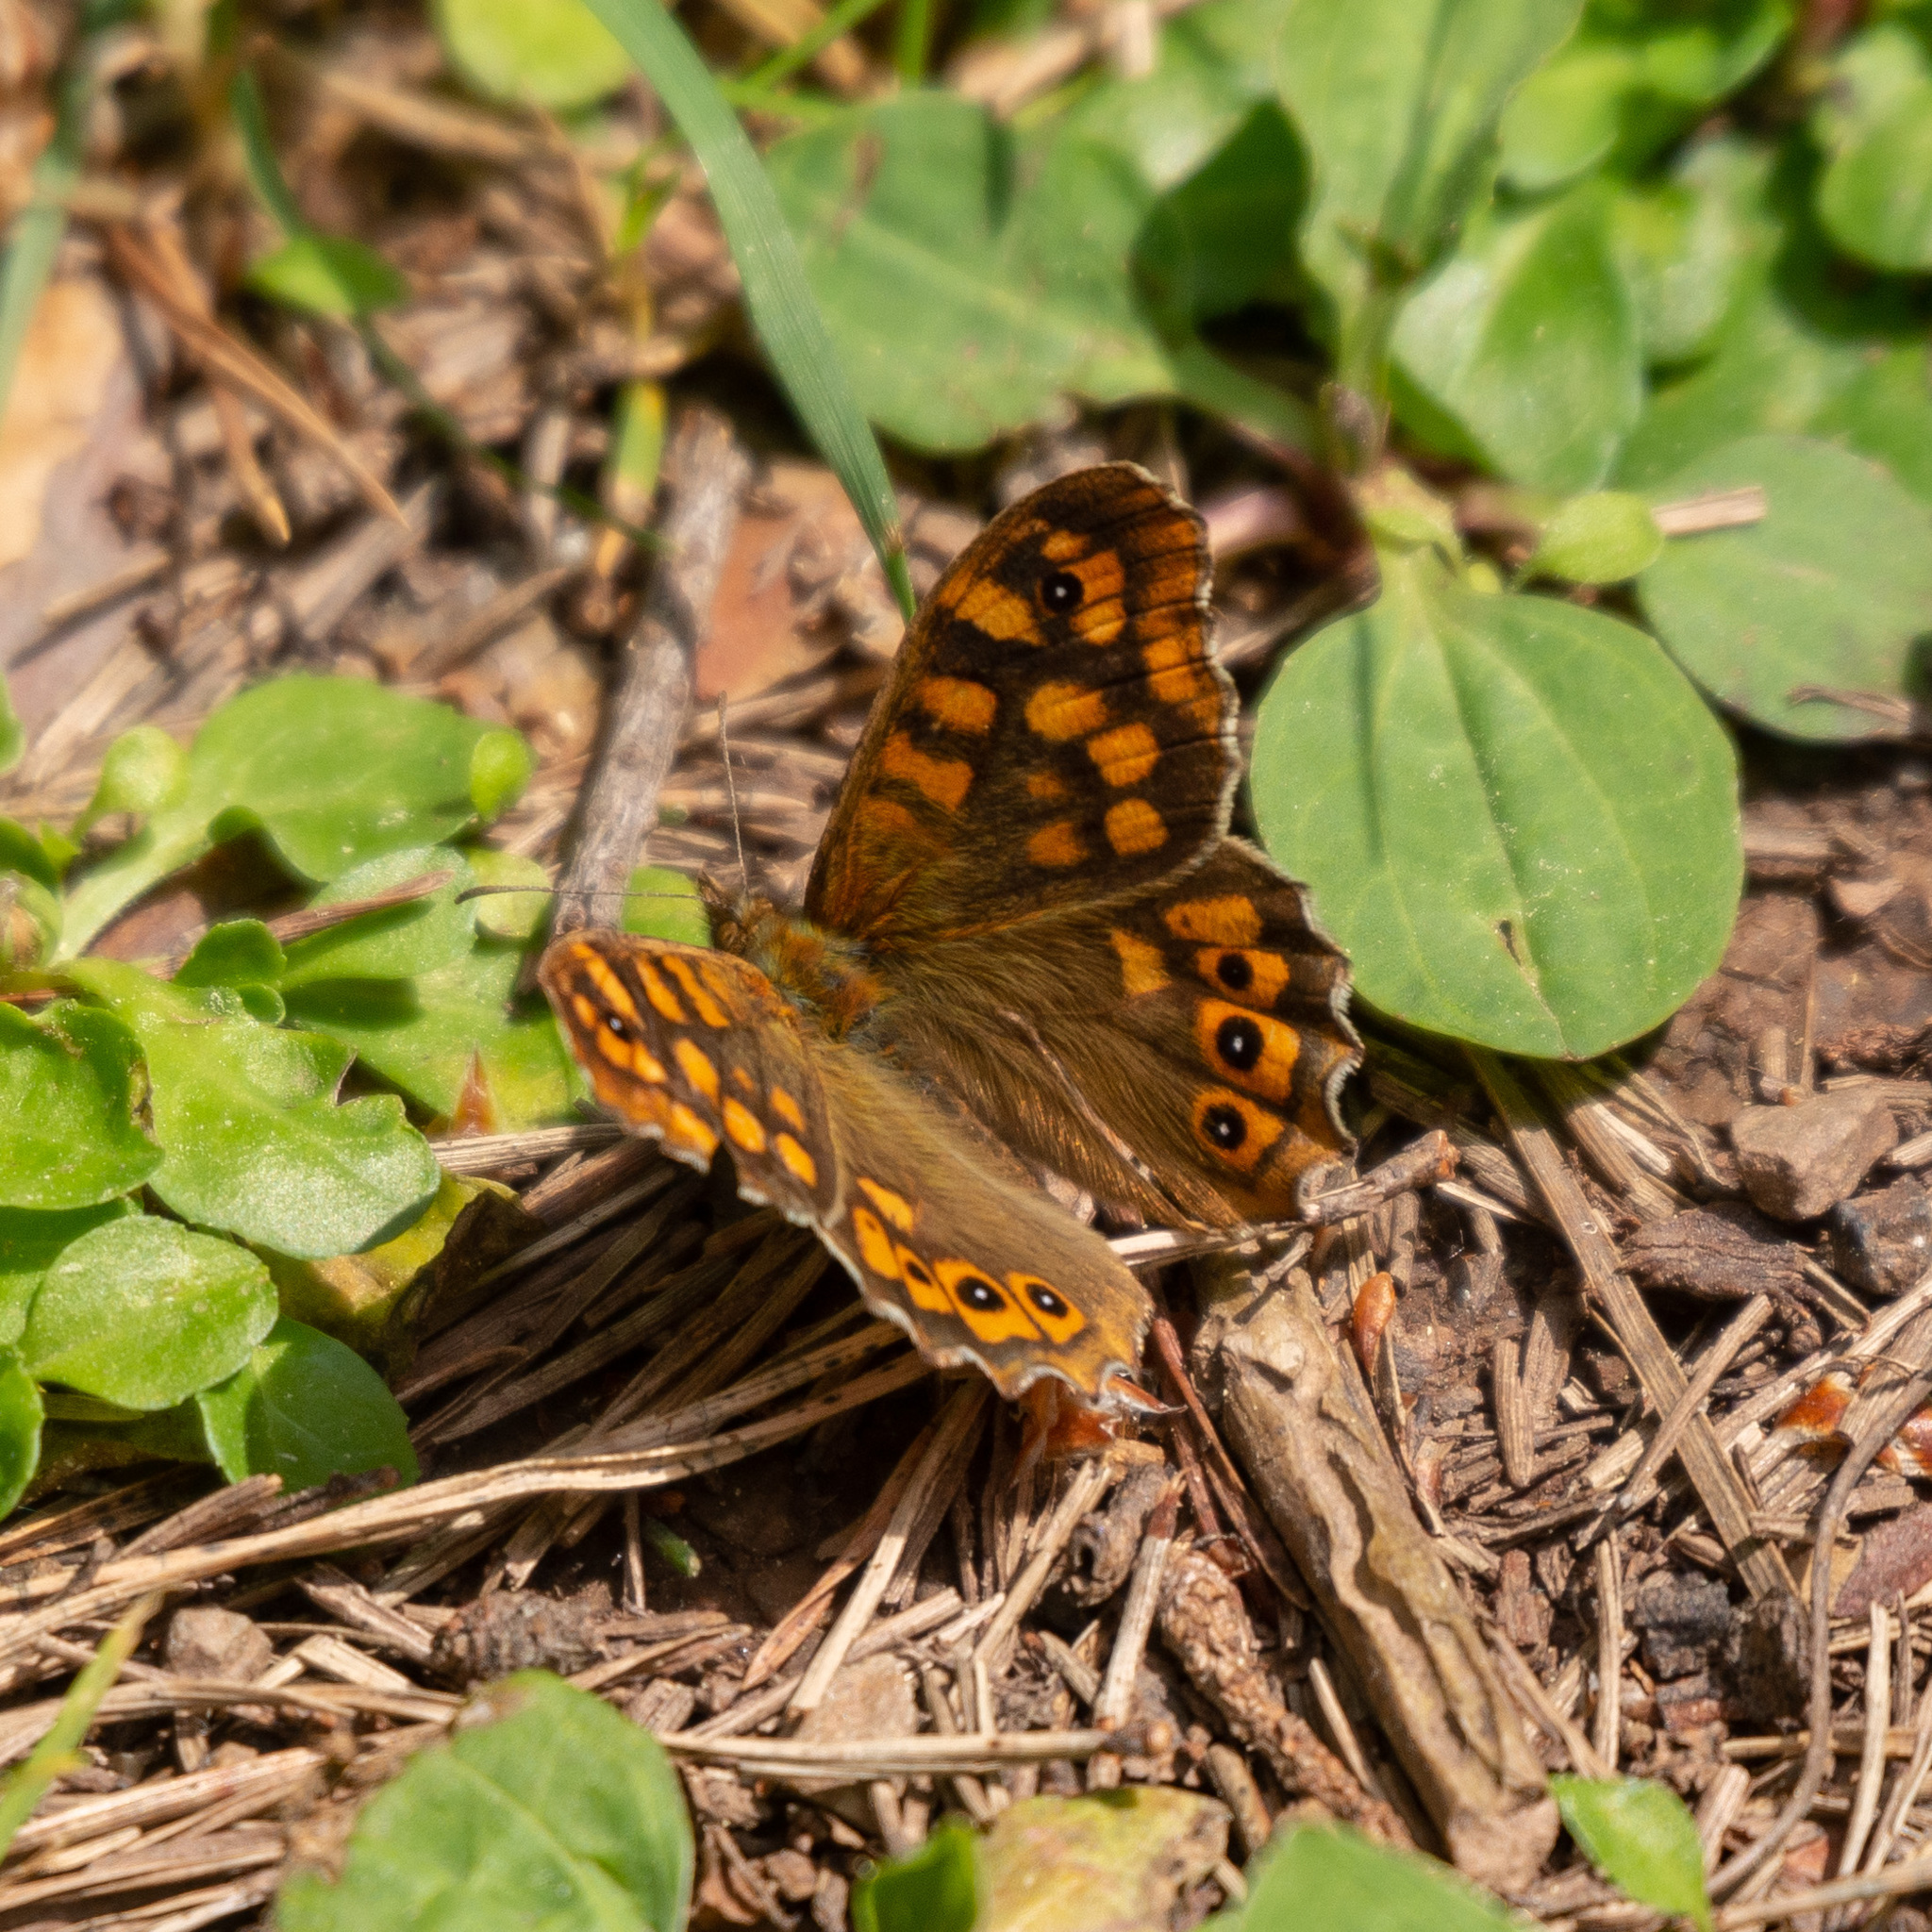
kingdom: Animalia
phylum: Arthropoda
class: Insecta
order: Lepidoptera
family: Nymphalidae
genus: Pararge
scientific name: Pararge aegeria
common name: Speckled wood
